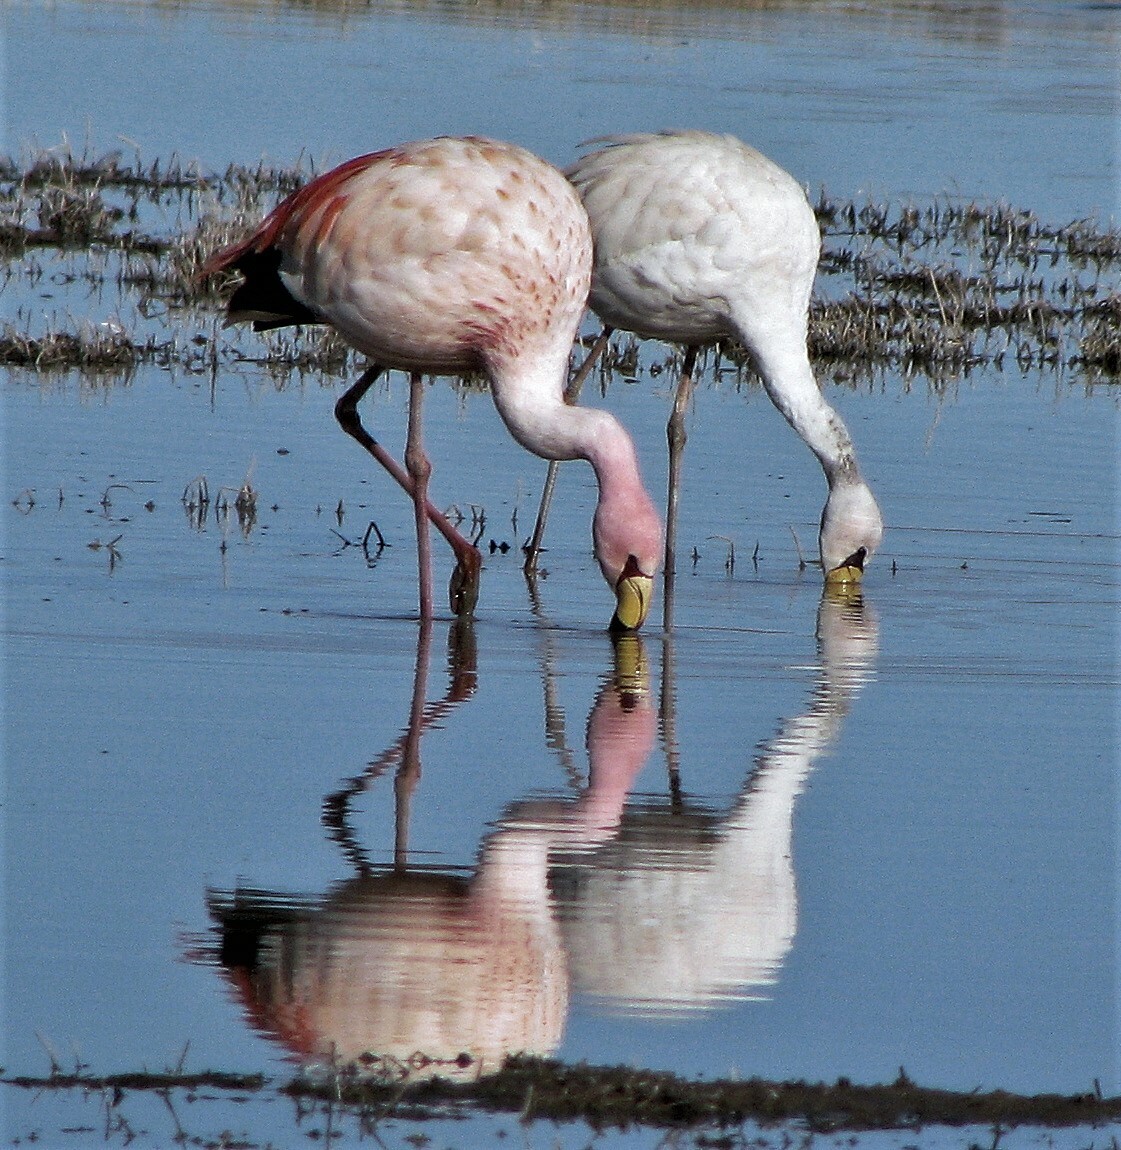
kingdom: Animalia
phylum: Chordata
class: Aves
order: Phoenicopteriformes
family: Phoenicopteridae
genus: Phoenicoparrus
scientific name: Phoenicoparrus jamesi
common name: James's flamingo
